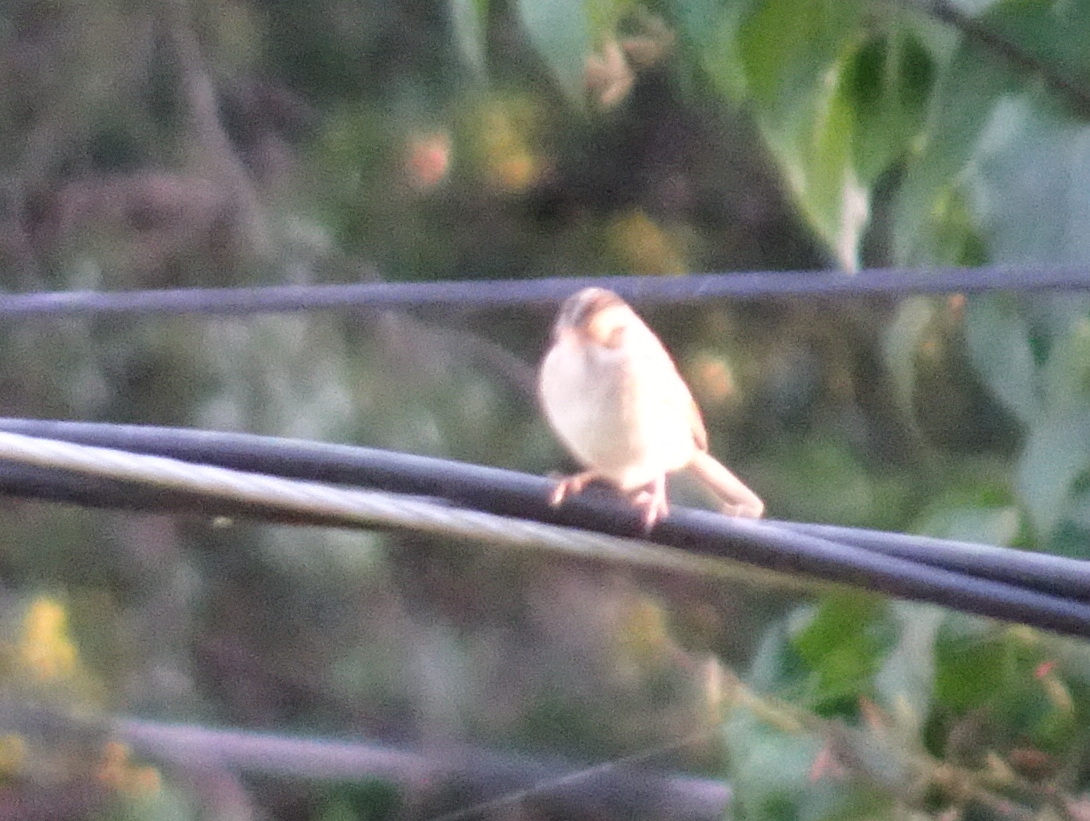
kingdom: Animalia
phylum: Chordata
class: Aves
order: Passeriformes
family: Passerellidae
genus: Spizella
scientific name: Spizella pallida
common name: Clay-colored sparrow
